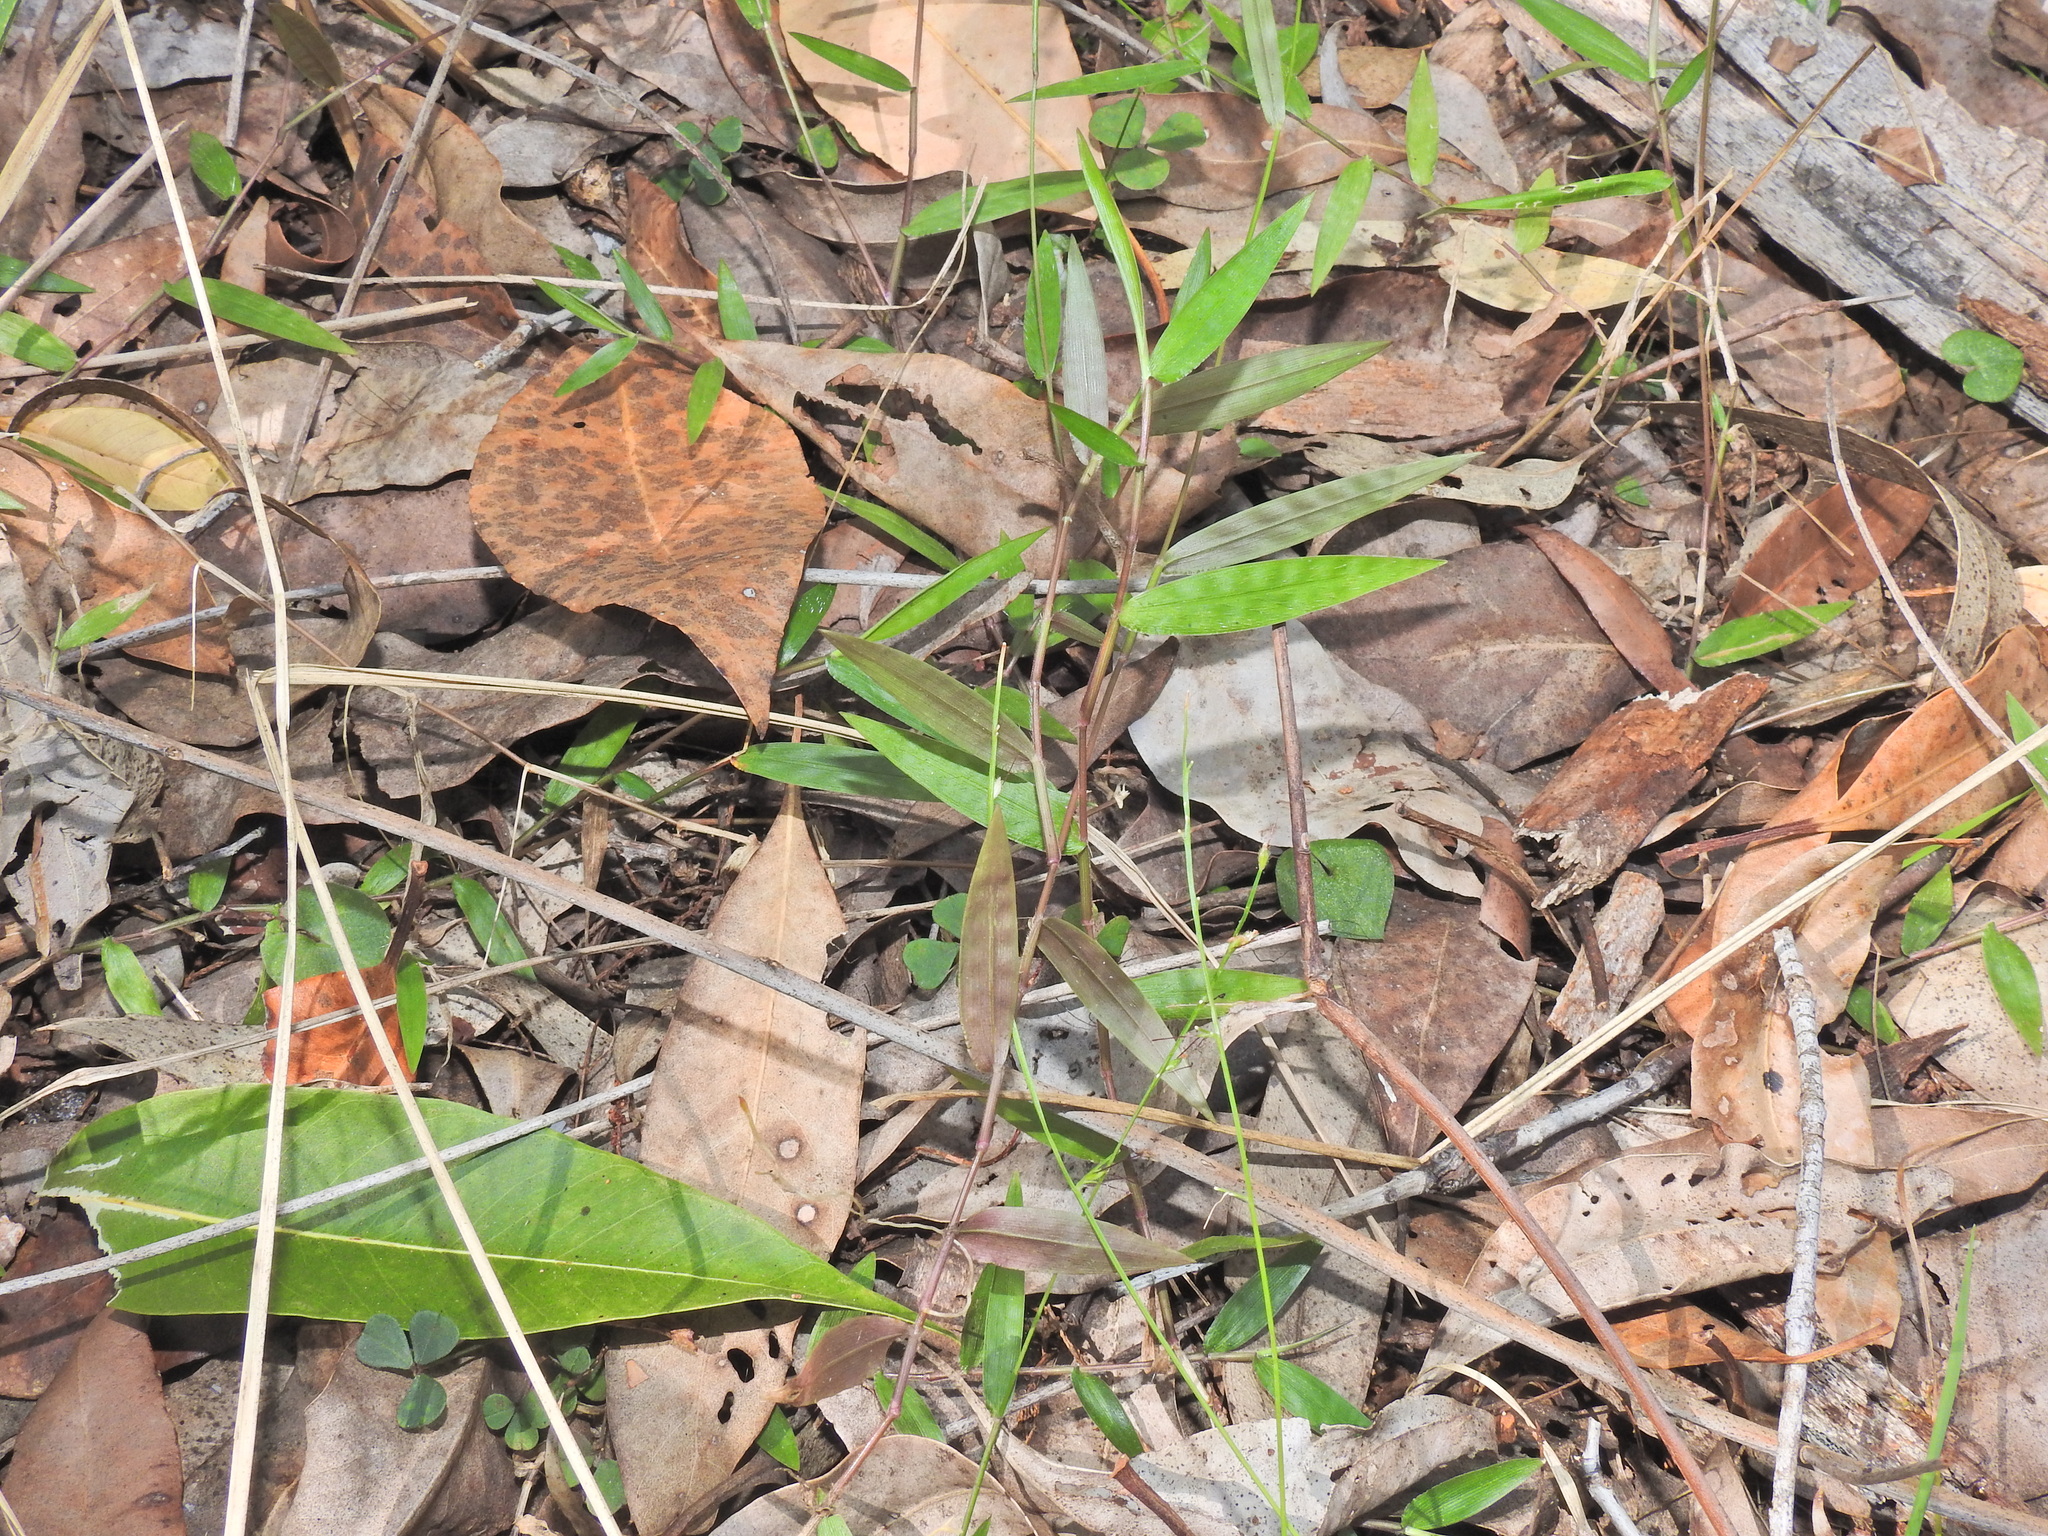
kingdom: Plantae
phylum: Tracheophyta
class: Liliopsida
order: Poales
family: Poaceae
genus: Oplismenus
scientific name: Oplismenus hirtellus
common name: Basketgrass
